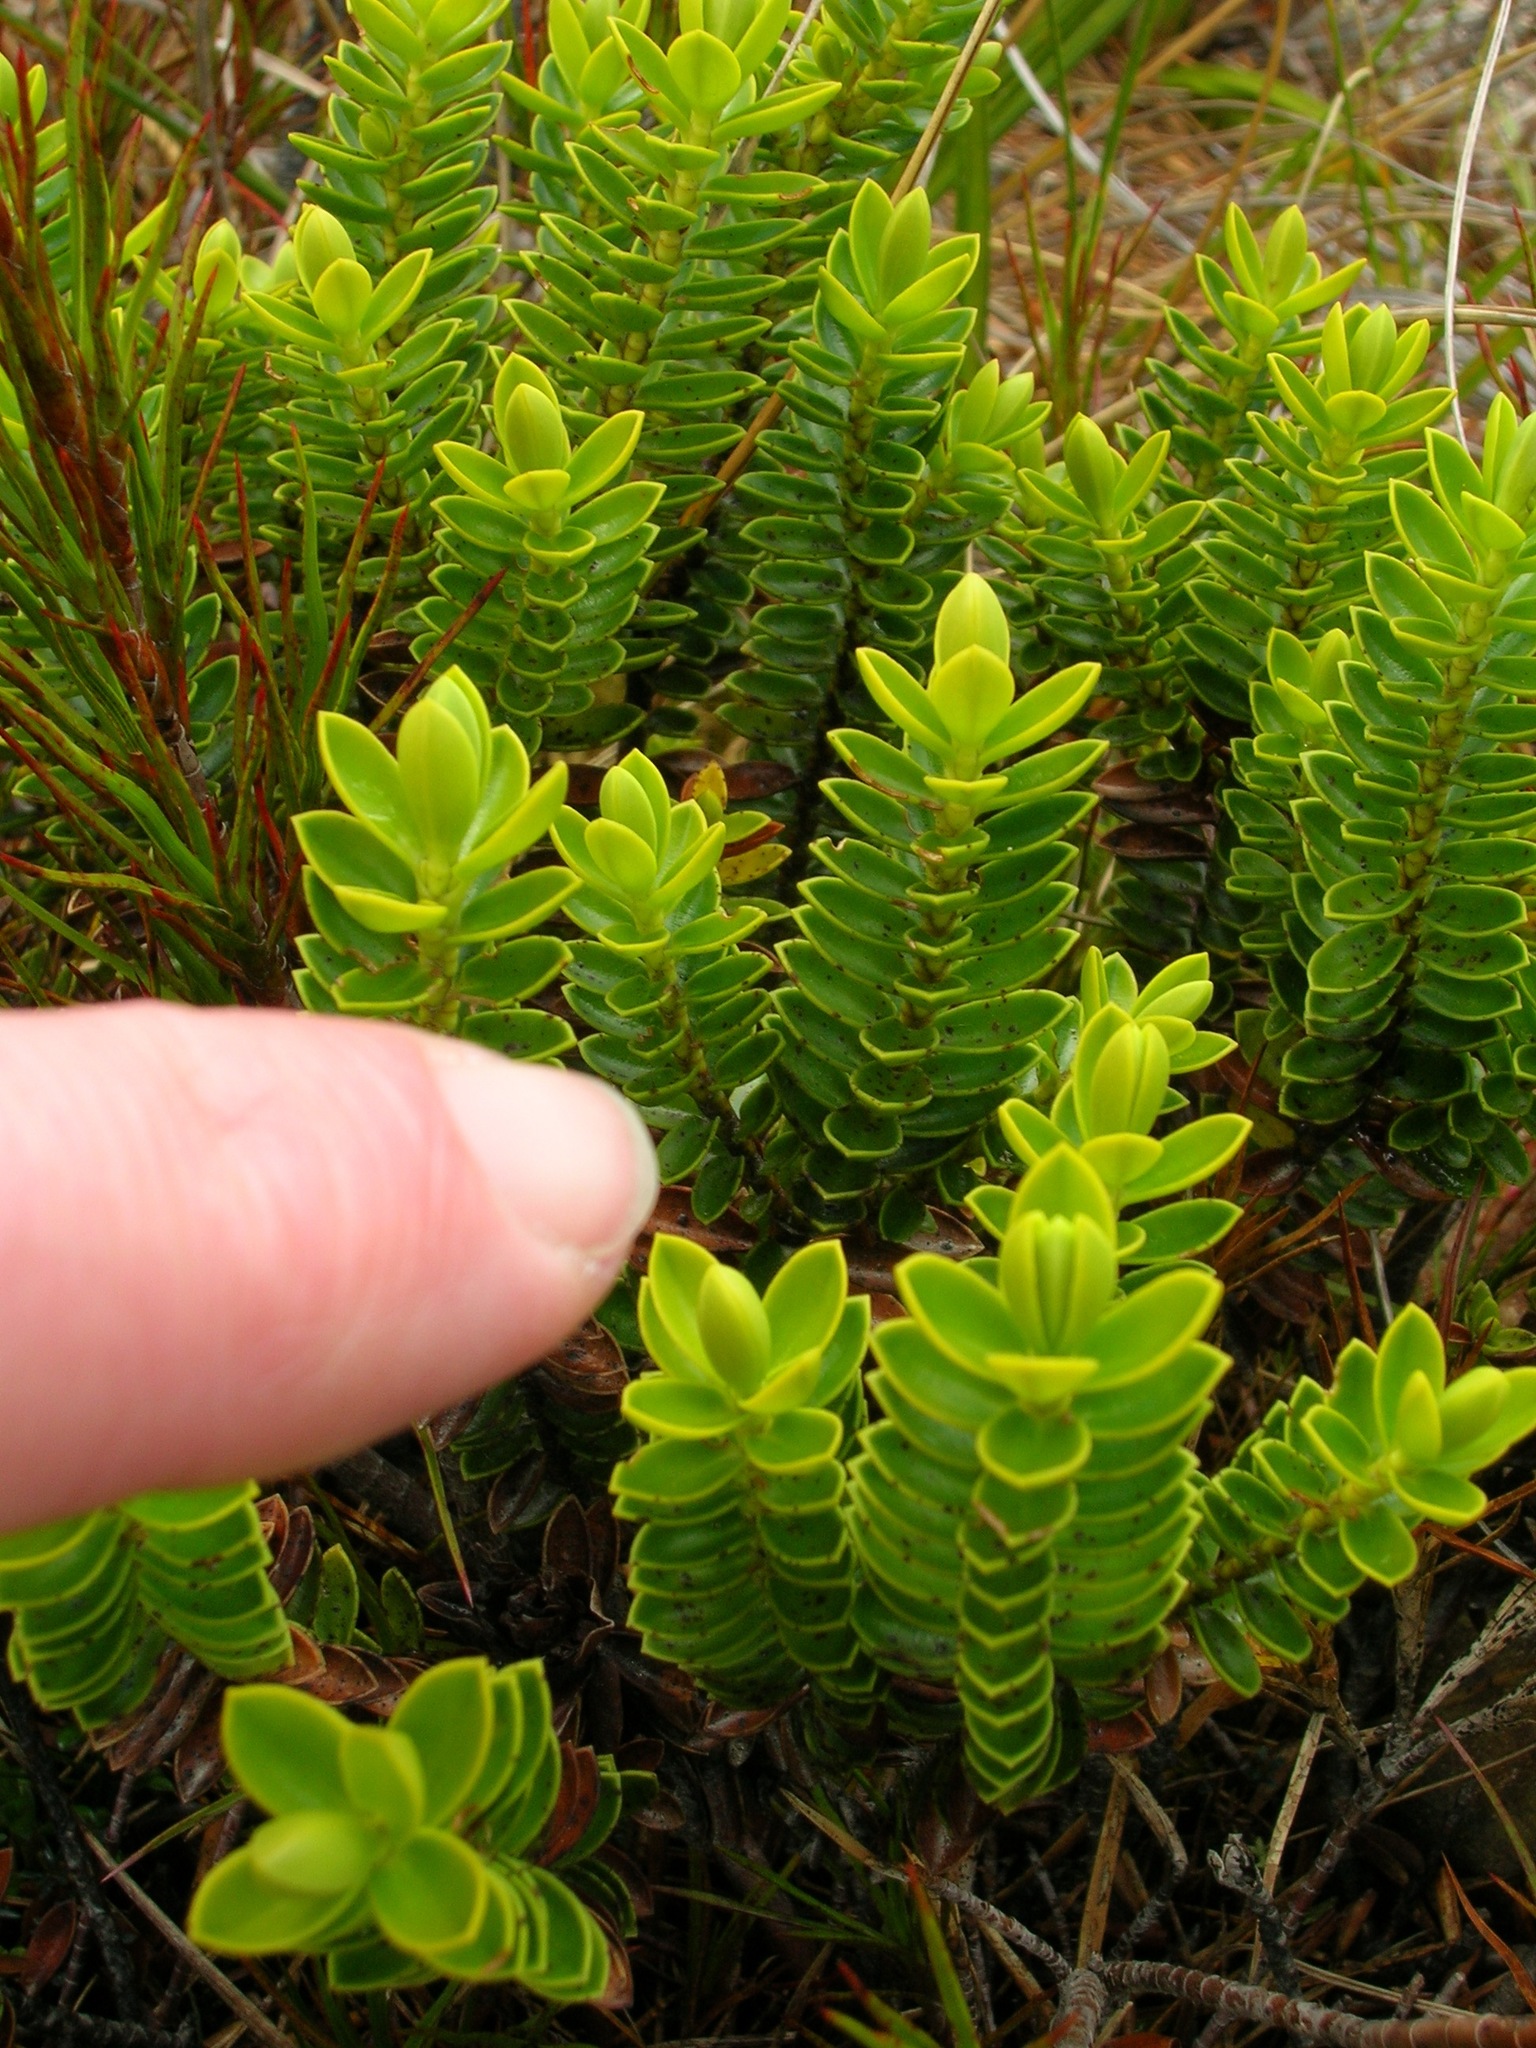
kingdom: Plantae
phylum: Tracheophyta
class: Magnoliopsida
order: Lamiales
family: Plantaginaceae
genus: Veronica
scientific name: Veronica odora
